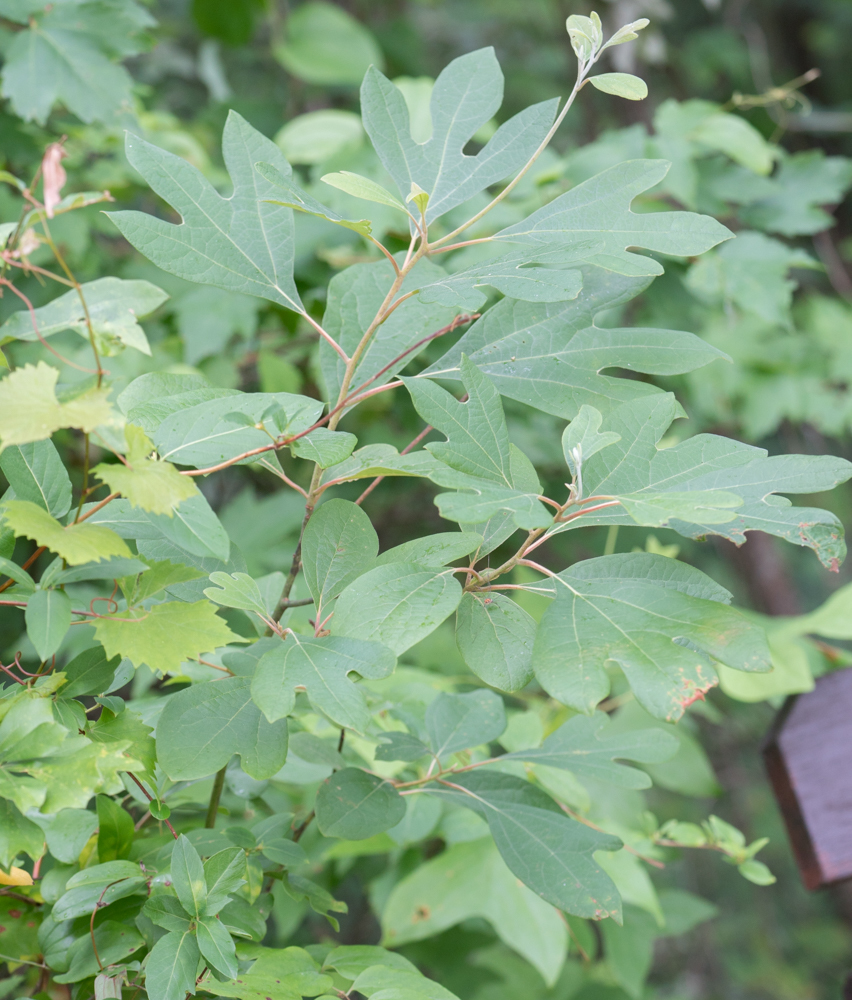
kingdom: Plantae
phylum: Tracheophyta
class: Magnoliopsida
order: Laurales
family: Lauraceae
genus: Sassafras
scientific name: Sassafras albidum
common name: Sassafras
